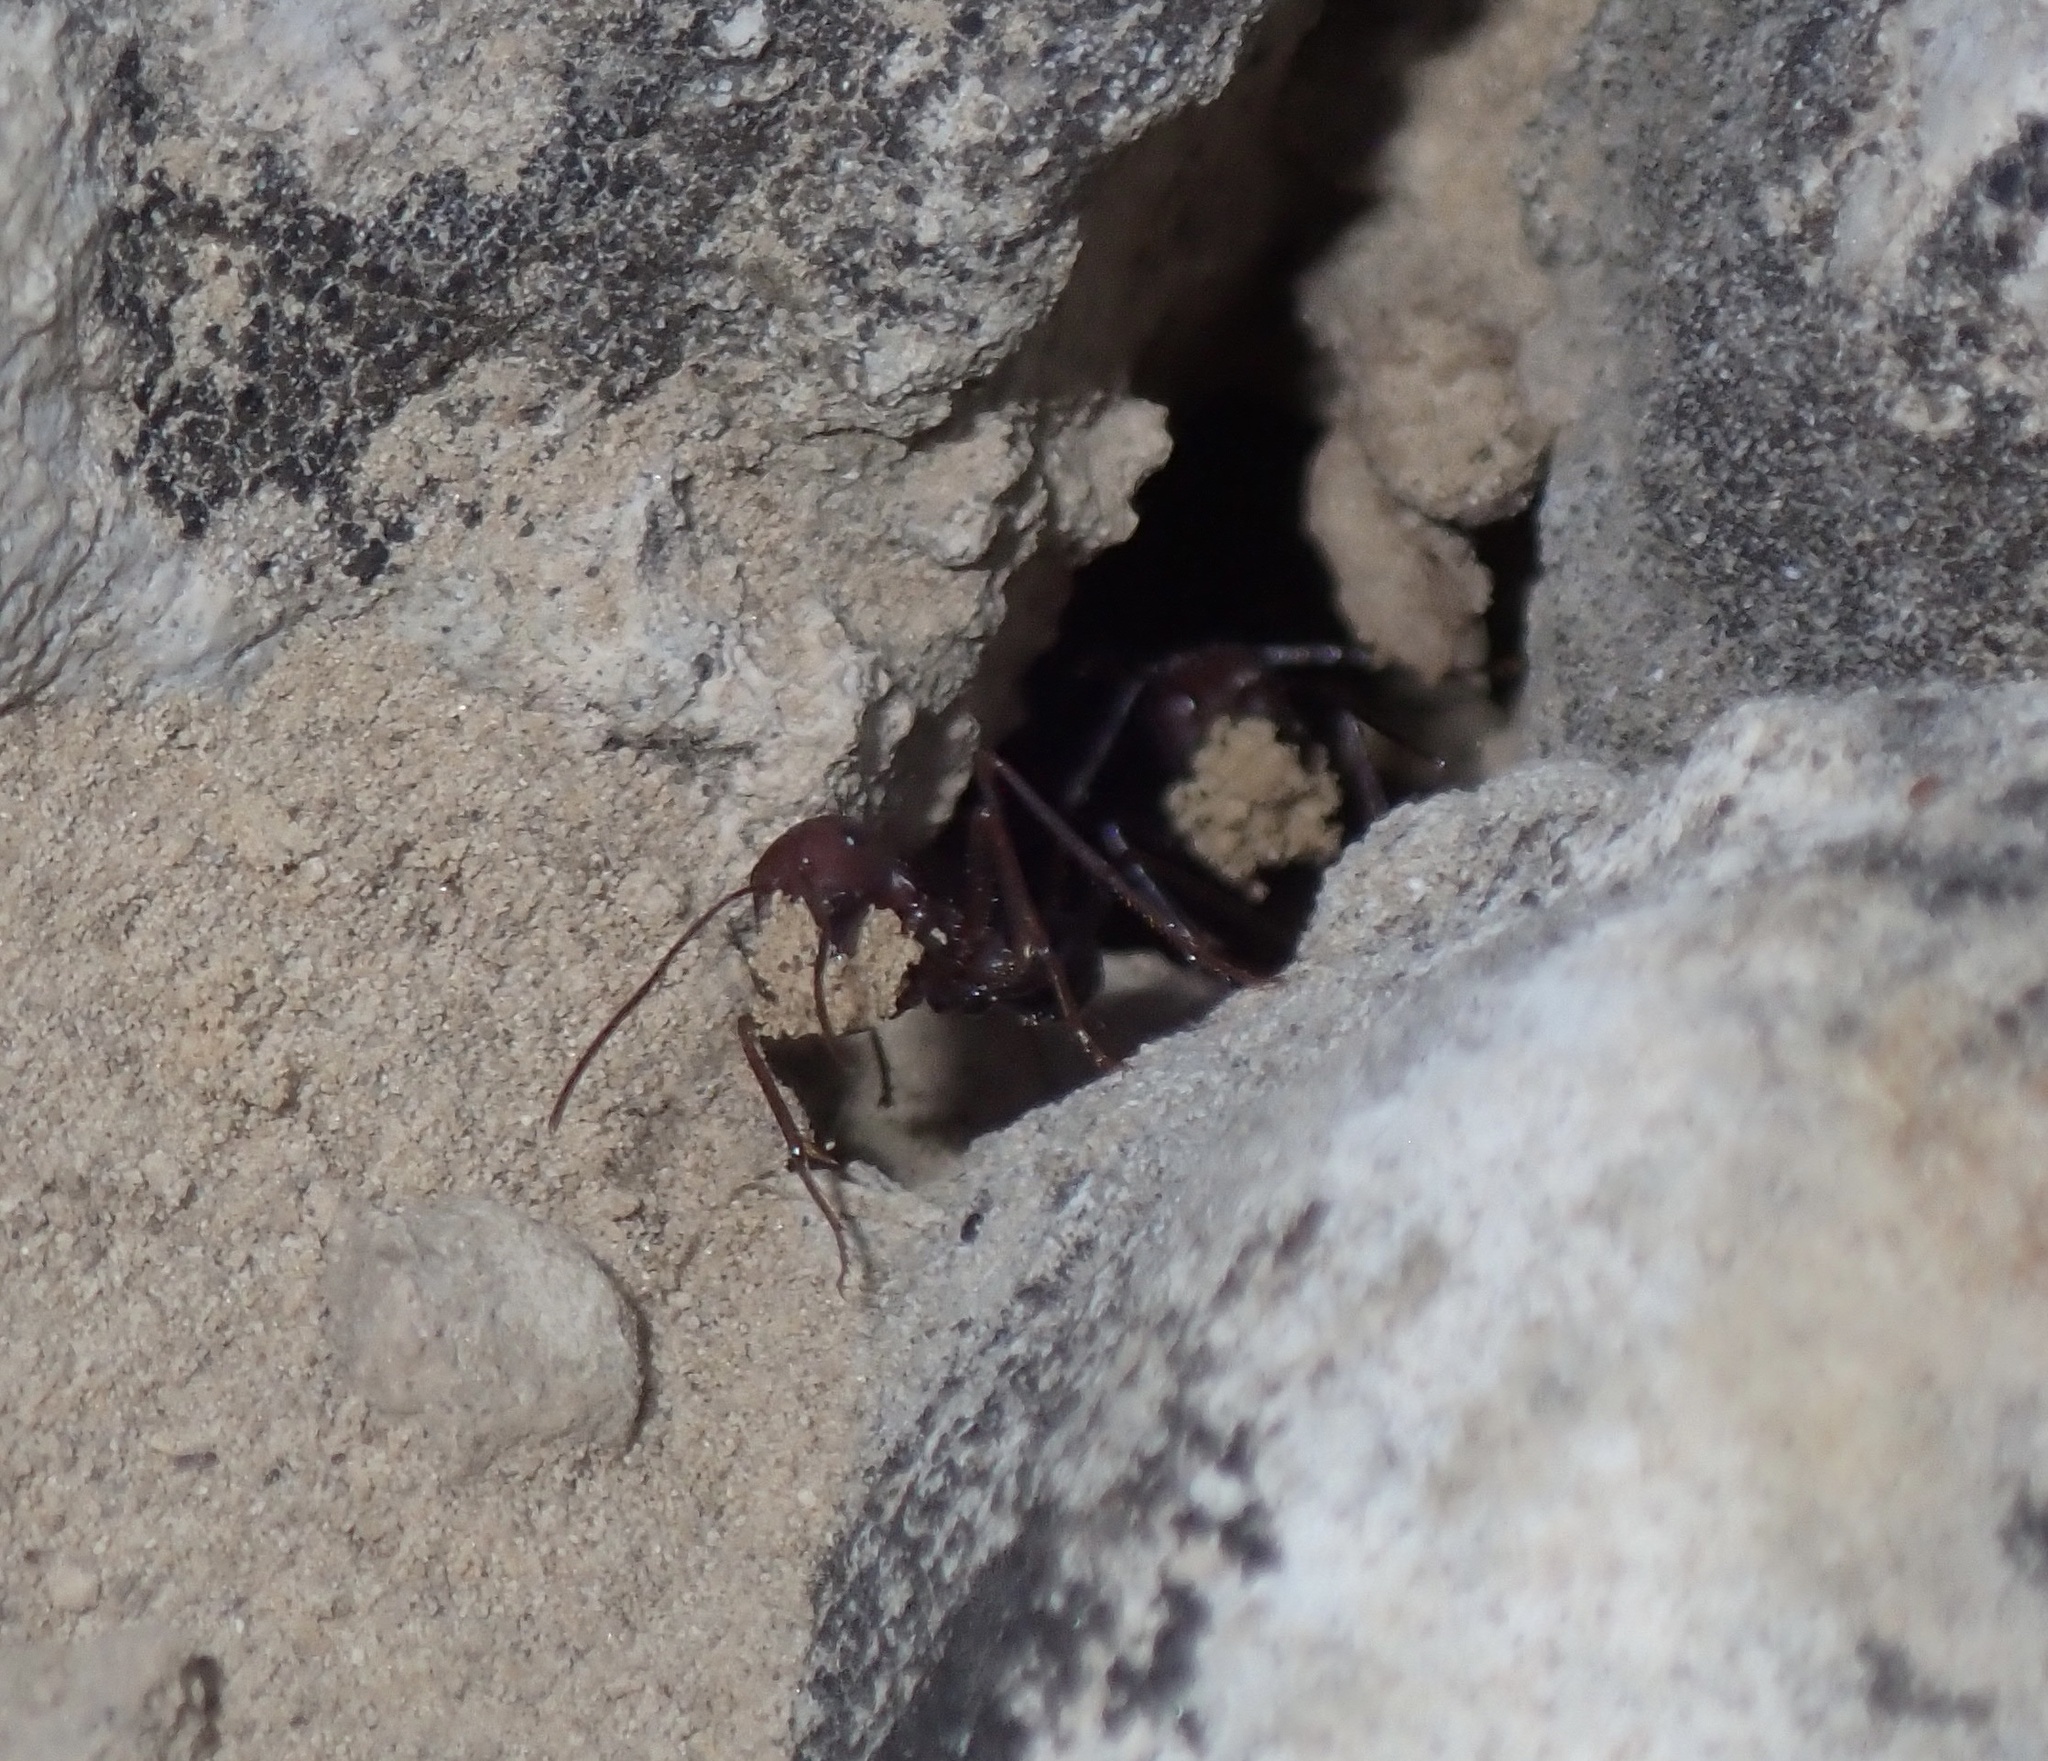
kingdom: Animalia
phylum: Arthropoda
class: Insecta
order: Hymenoptera
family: Formicidae
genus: Cataglyphis
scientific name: Cataglyphis nodus
